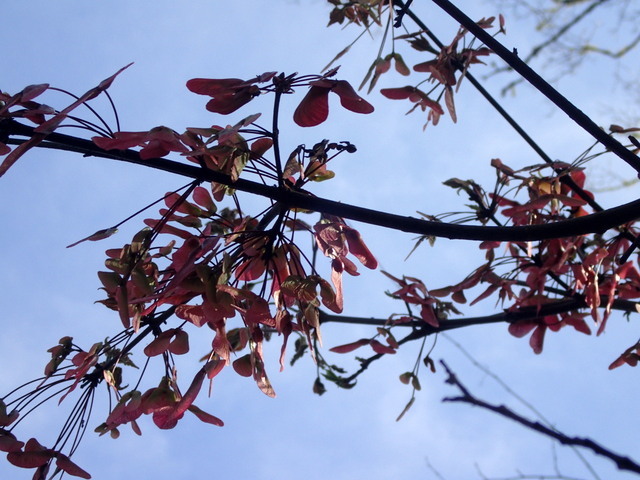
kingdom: Plantae
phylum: Tracheophyta
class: Magnoliopsida
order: Sapindales
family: Sapindaceae
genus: Acer
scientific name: Acer rubrum
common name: Red maple
